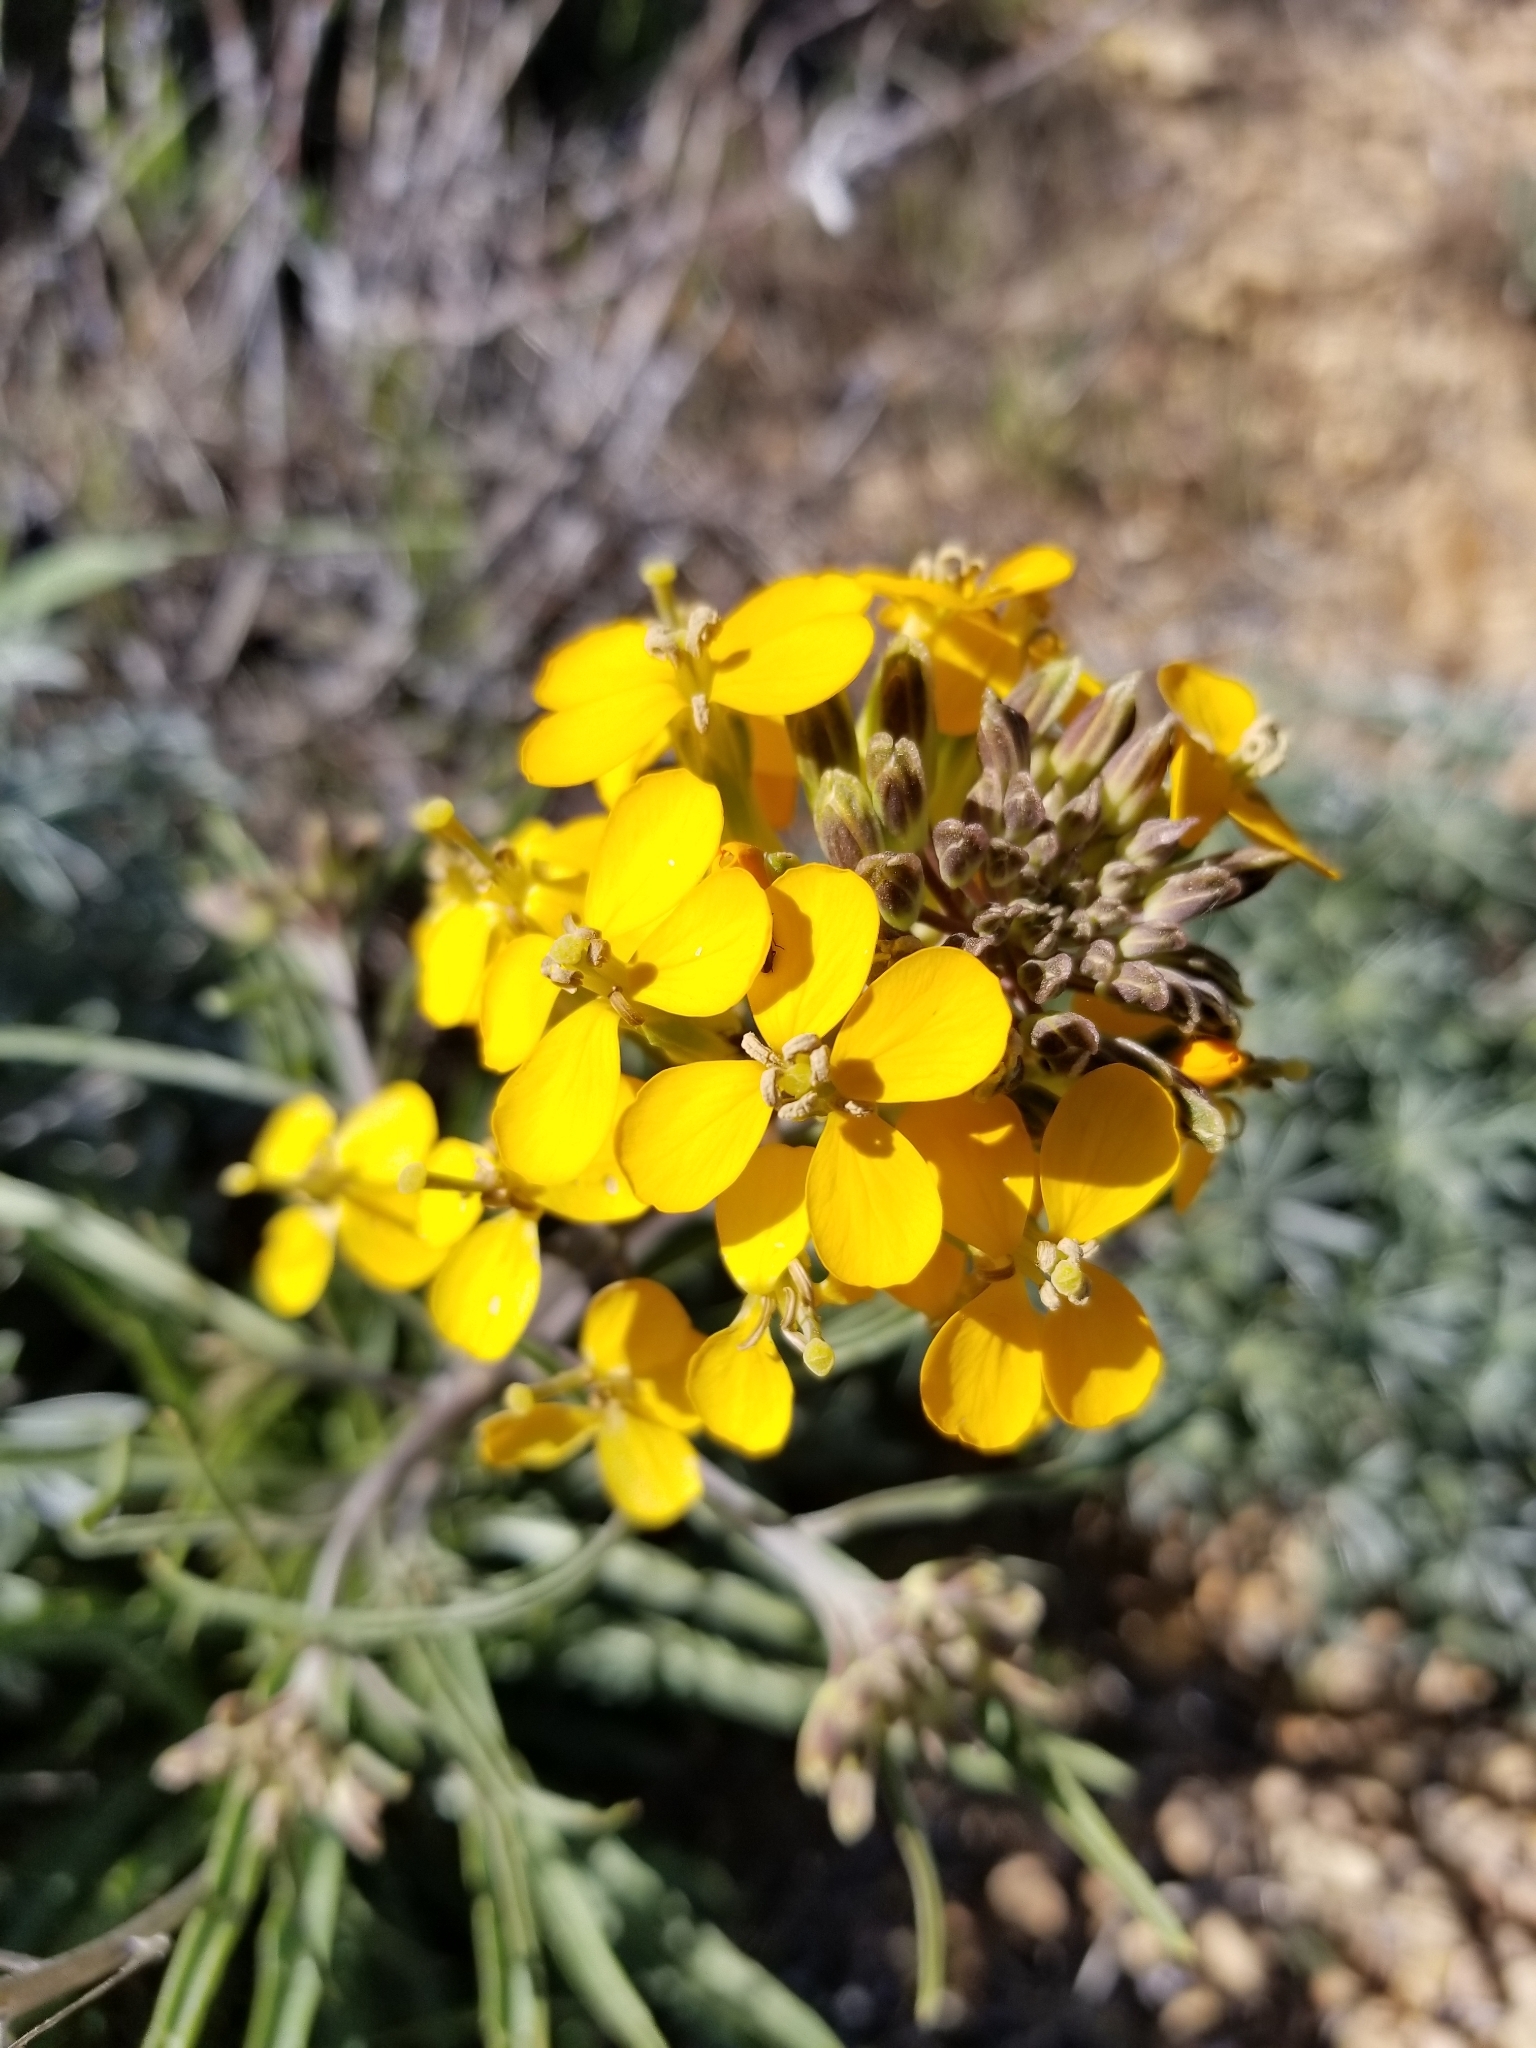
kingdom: Plantae
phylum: Tracheophyta
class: Magnoliopsida
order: Brassicales
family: Brassicaceae
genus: Erysimum
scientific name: Erysimum capitatum
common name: Western wallflower
